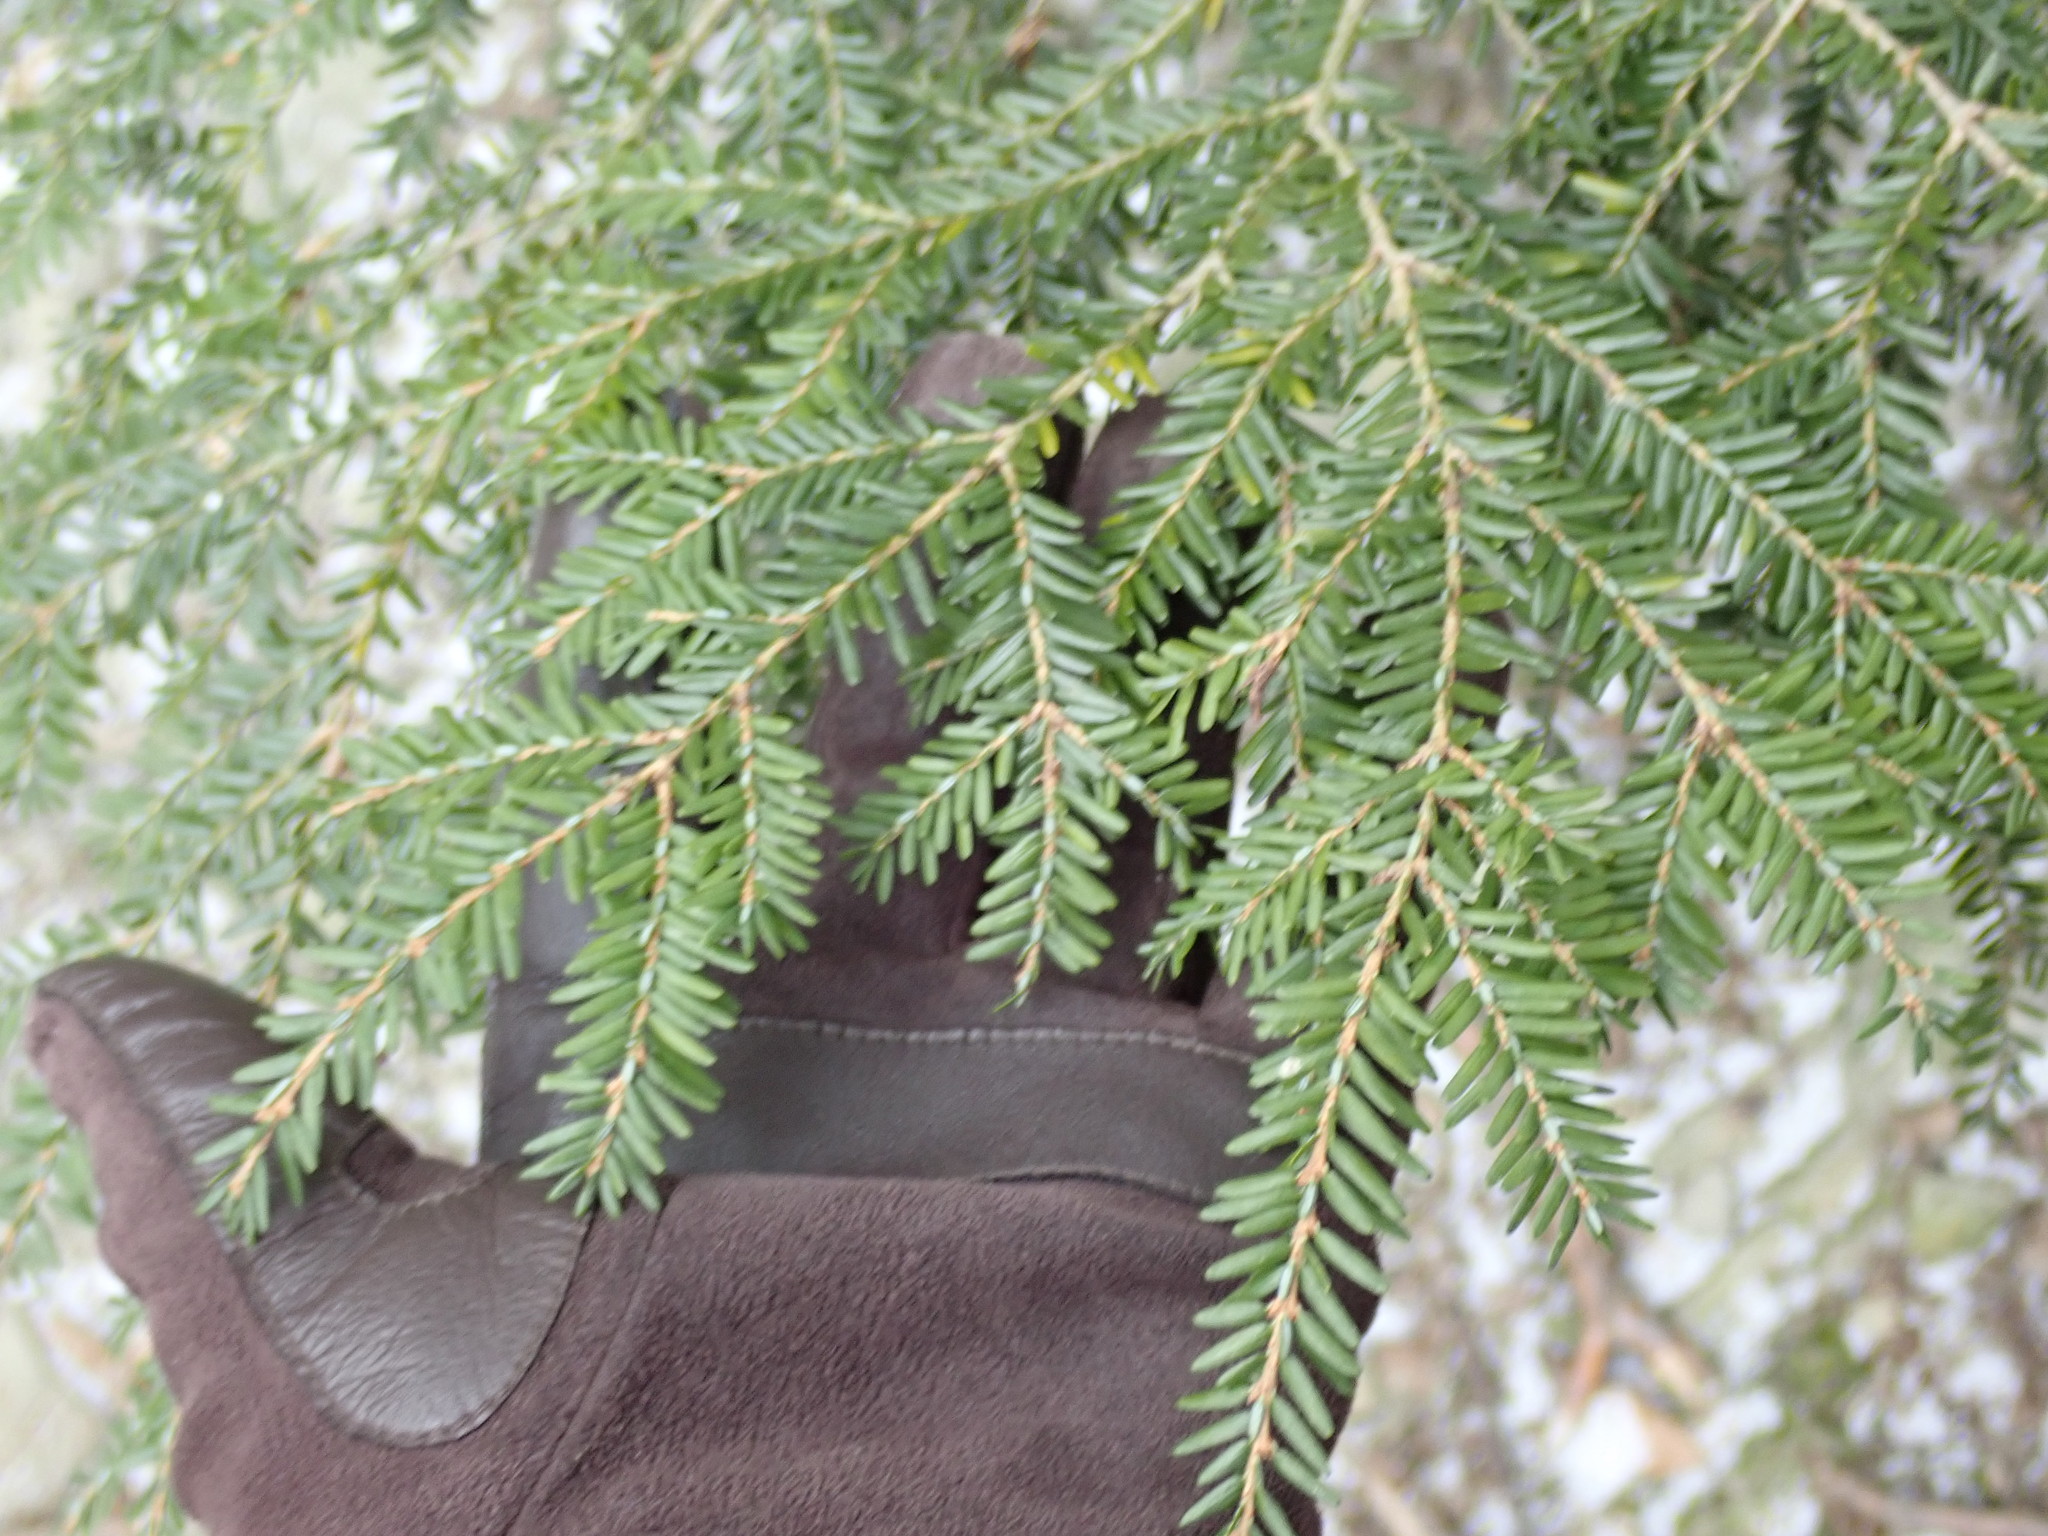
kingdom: Plantae
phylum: Tracheophyta
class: Pinopsida
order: Pinales
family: Pinaceae
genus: Tsuga
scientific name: Tsuga canadensis
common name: Eastern hemlock
